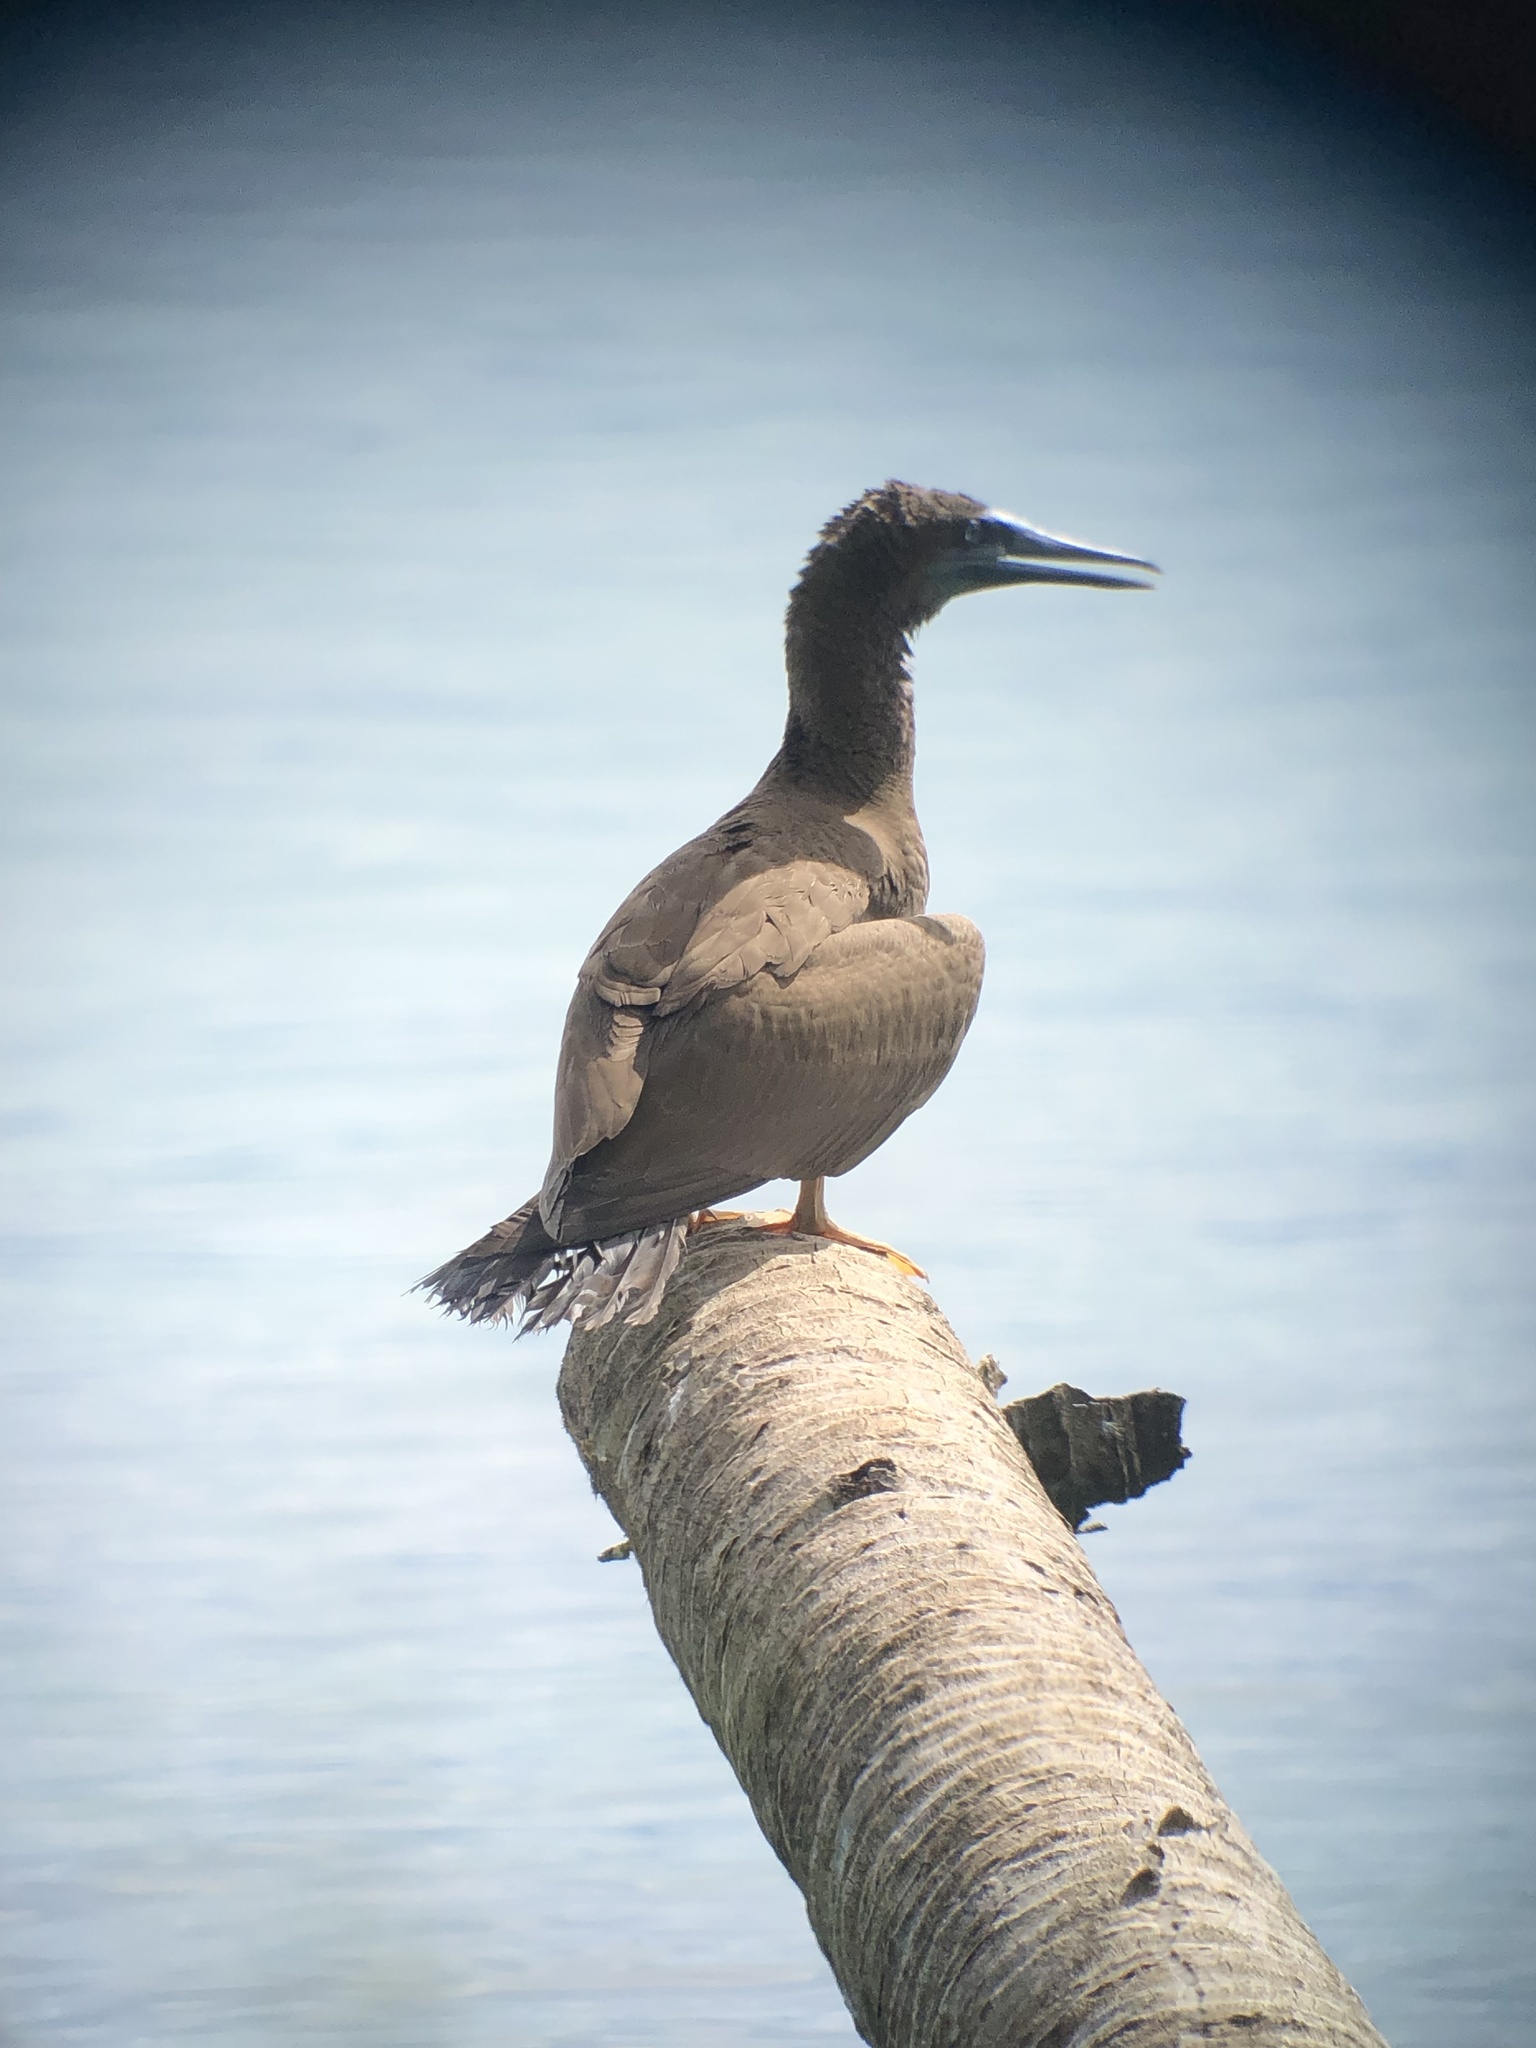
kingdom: Animalia
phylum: Chordata
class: Aves
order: Suliformes
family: Sulidae
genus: Sula
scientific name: Sula leucogaster
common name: Brown booby
